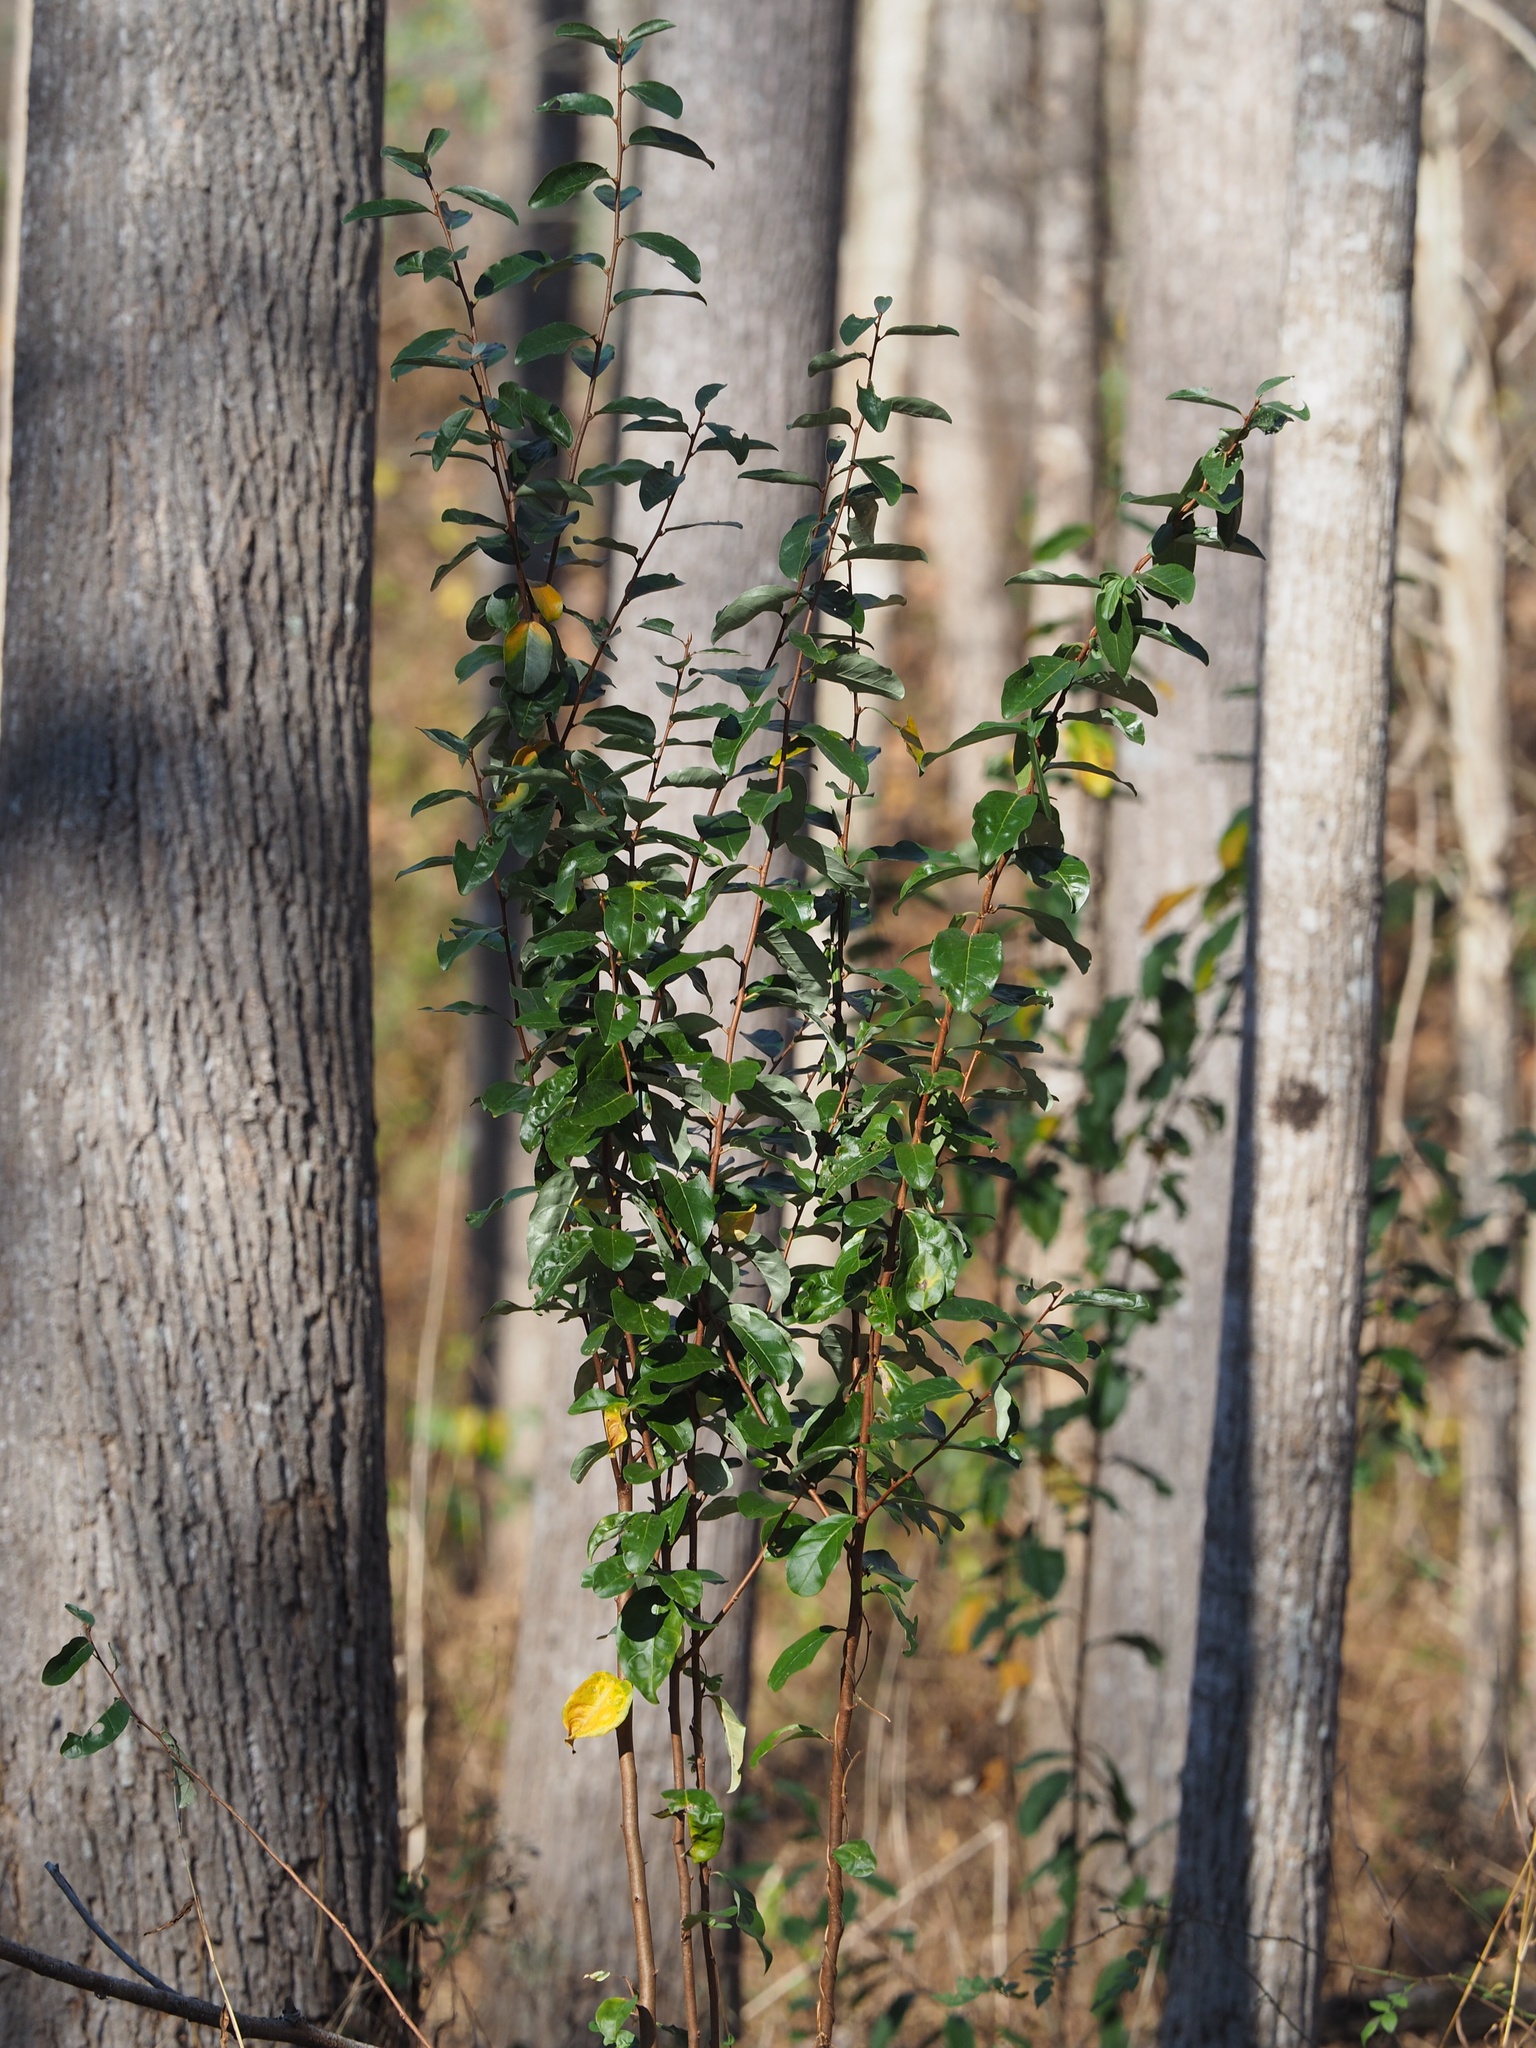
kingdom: Plantae
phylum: Tracheophyta
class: Magnoliopsida
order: Rosales
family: Elaeagnaceae
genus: Elaeagnus
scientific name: Elaeagnus umbellata
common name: Autumn olive
